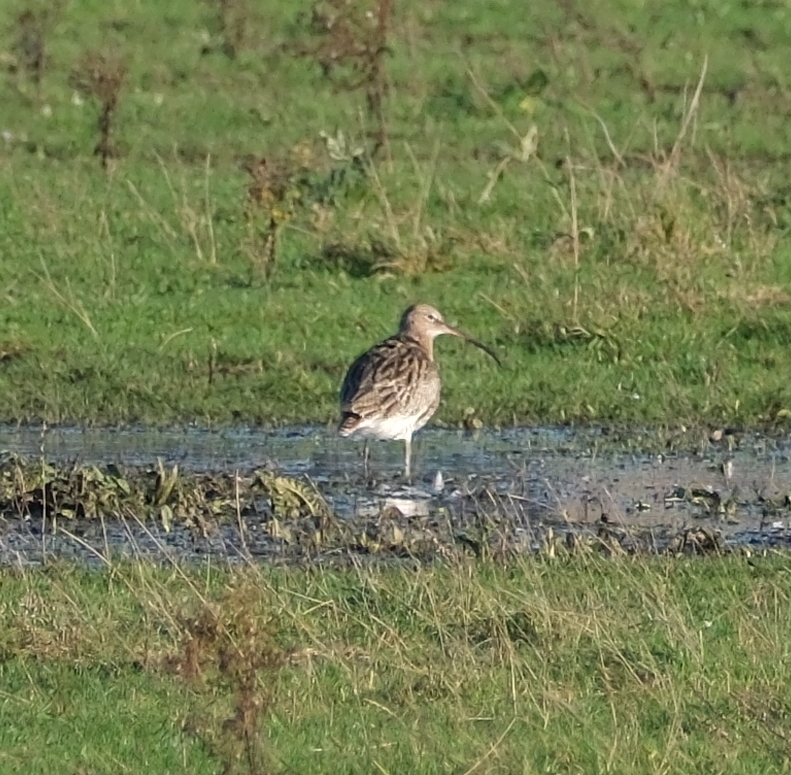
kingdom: Animalia
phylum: Chordata
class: Aves
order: Charadriiformes
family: Scolopacidae
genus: Numenius
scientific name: Numenius arquata
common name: Eurasian curlew
